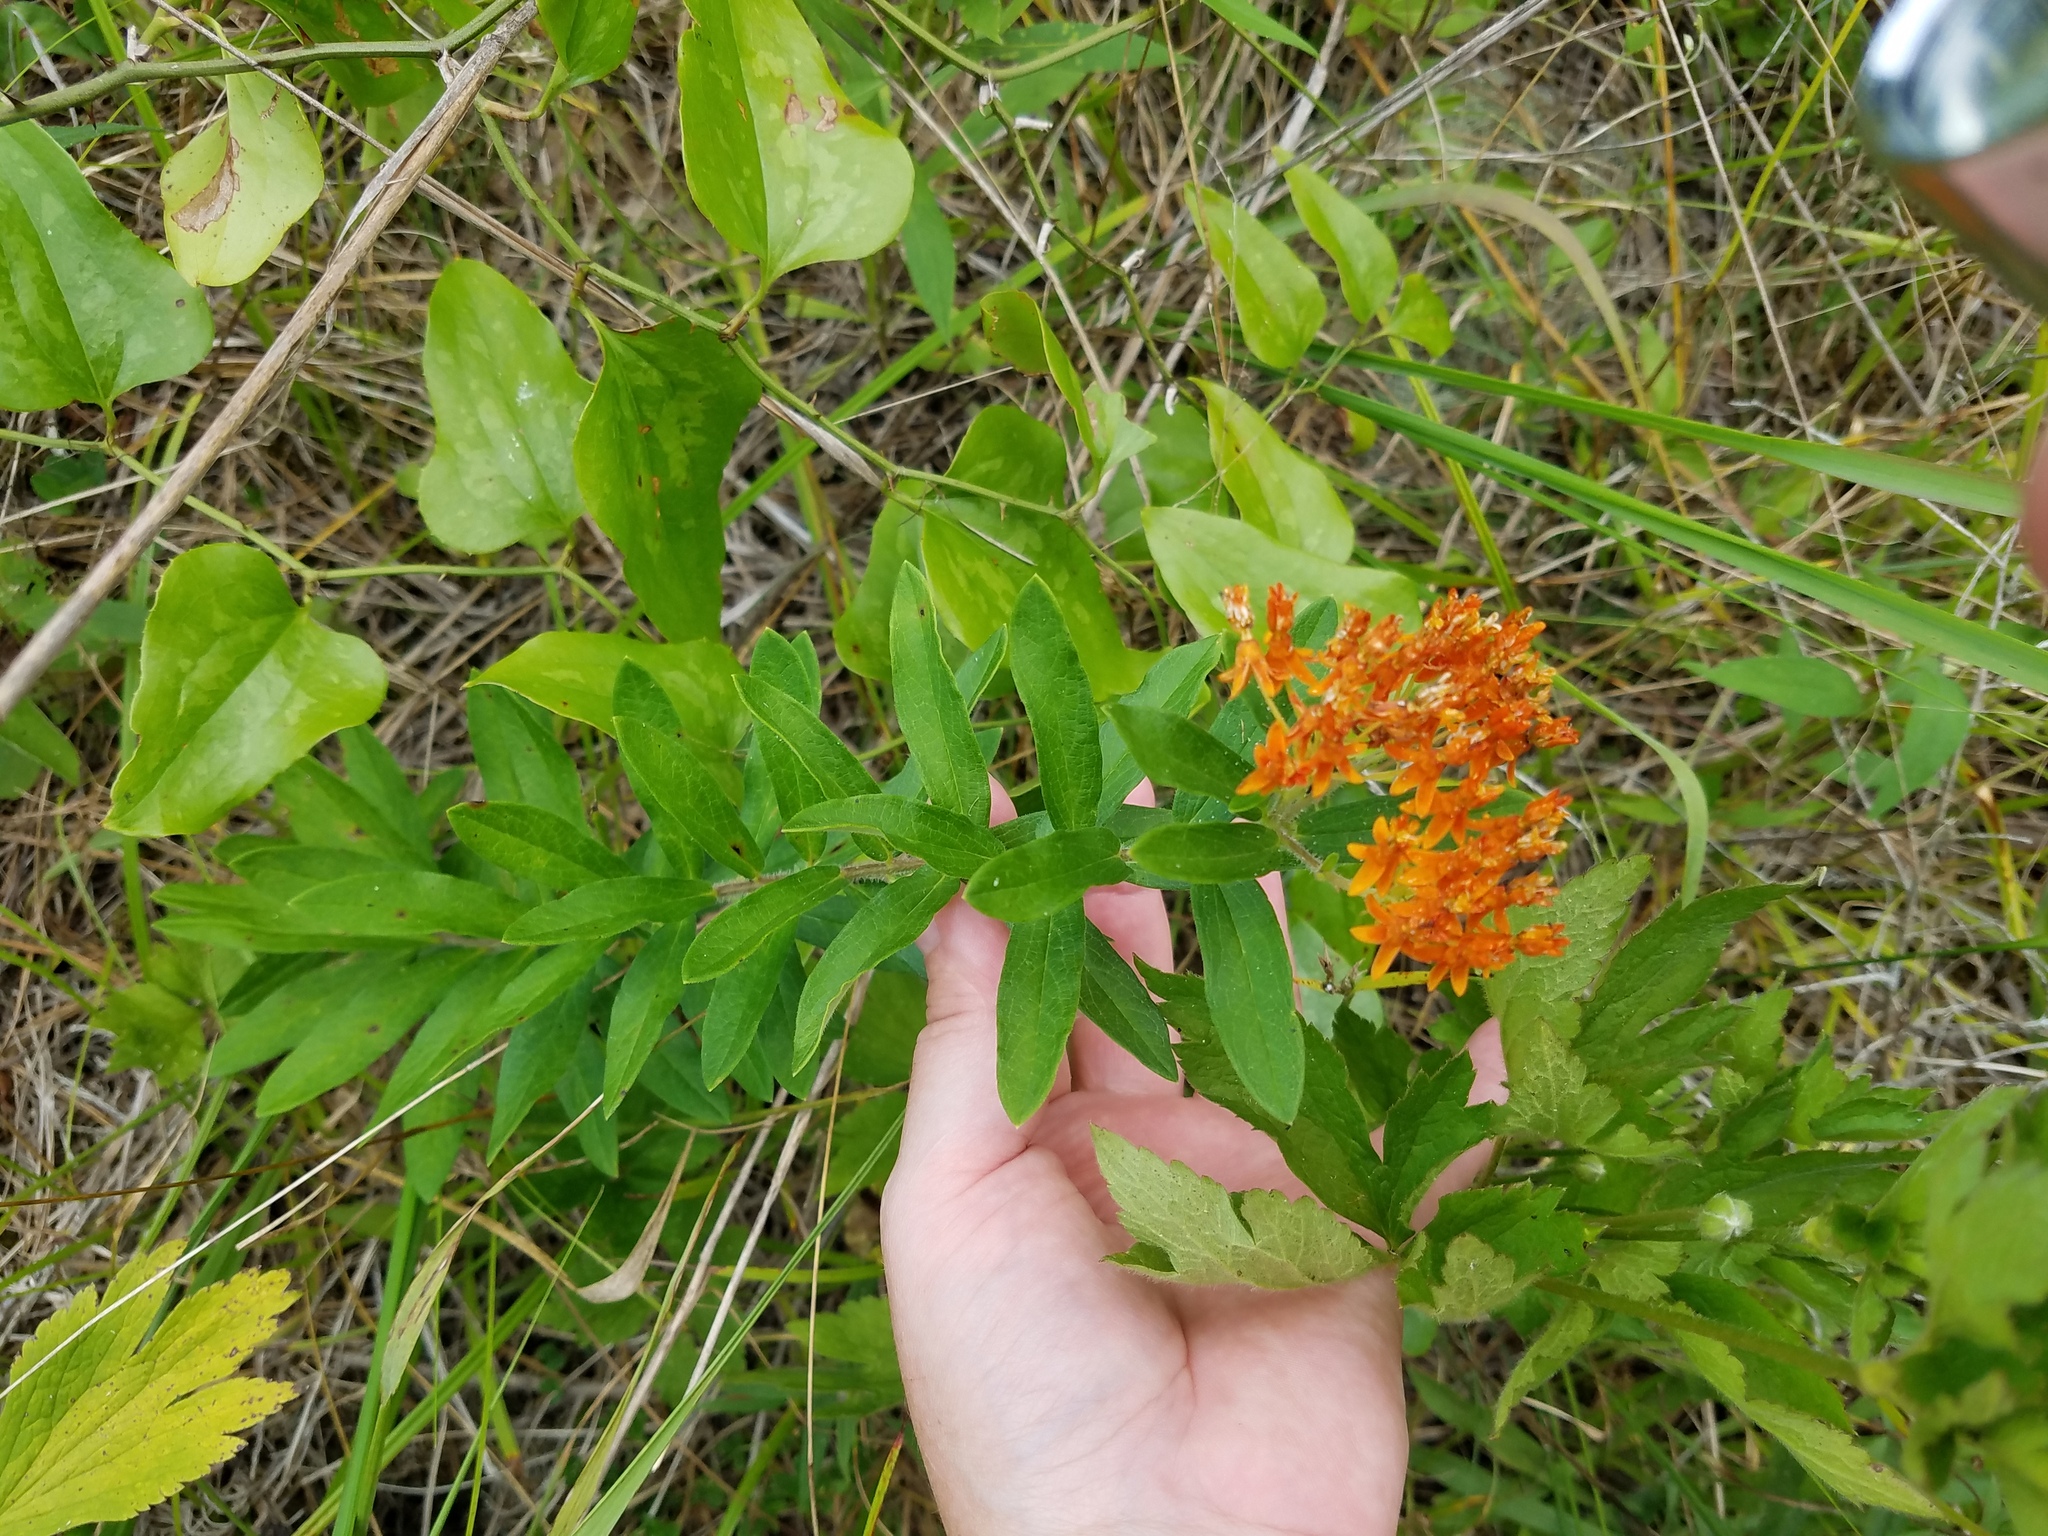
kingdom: Plantae
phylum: Tracheophyta
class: Magnoliopsida
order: Gentianales
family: Apocynaceae
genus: Asclepias
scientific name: Asclepias tuberosa
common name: Butterfly milkweed
